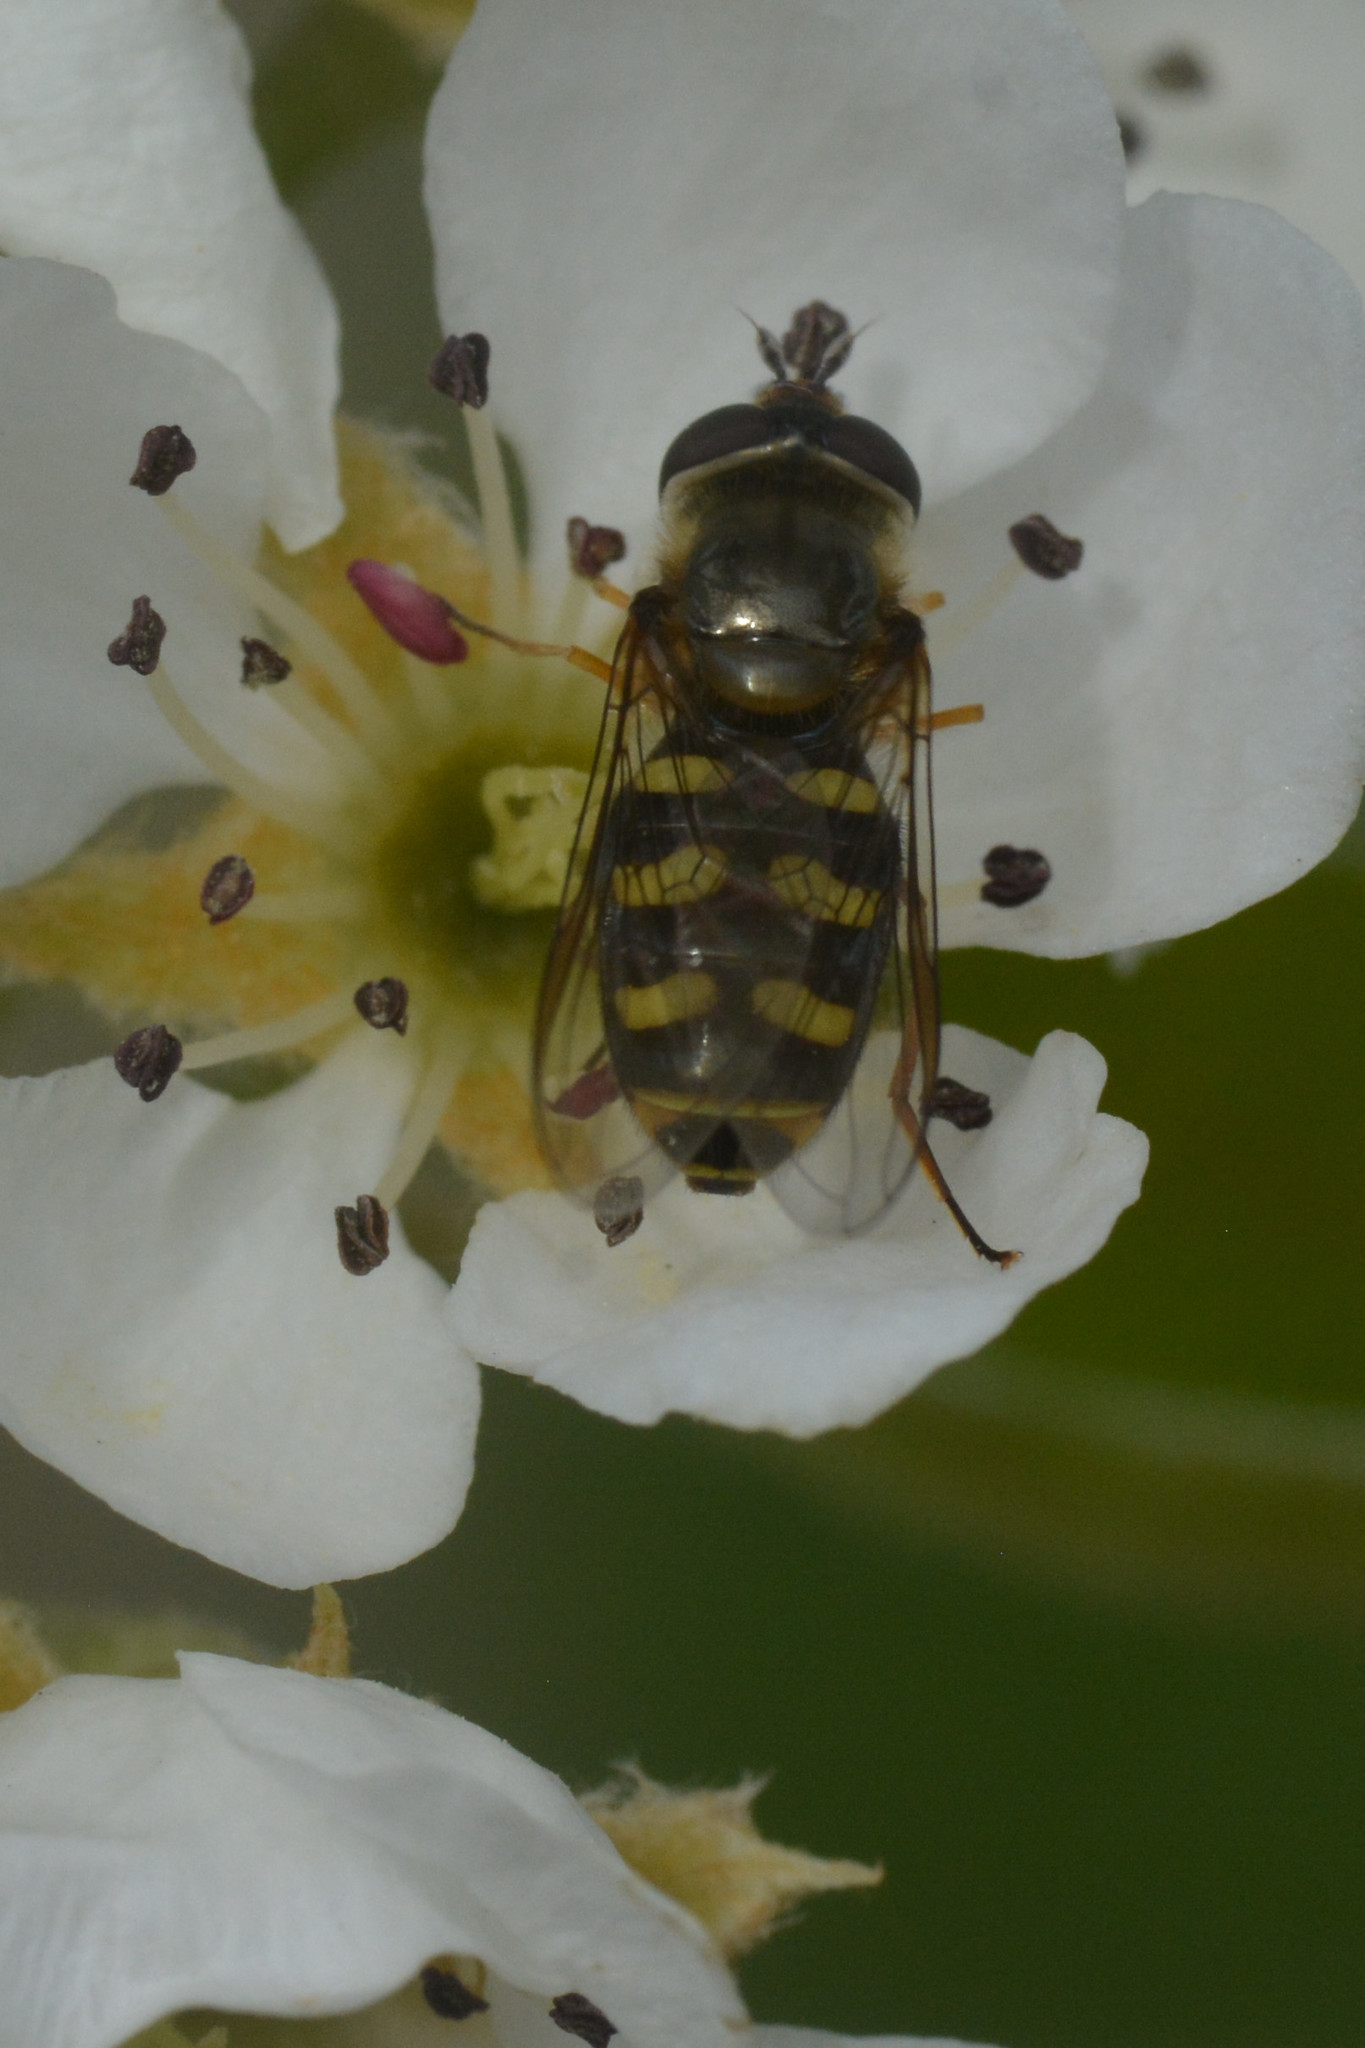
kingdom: Animalia
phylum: Arthropoda
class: Insecta
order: Diptera
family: Syrphidae
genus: Eupeodes
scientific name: Eupeodes luniger
